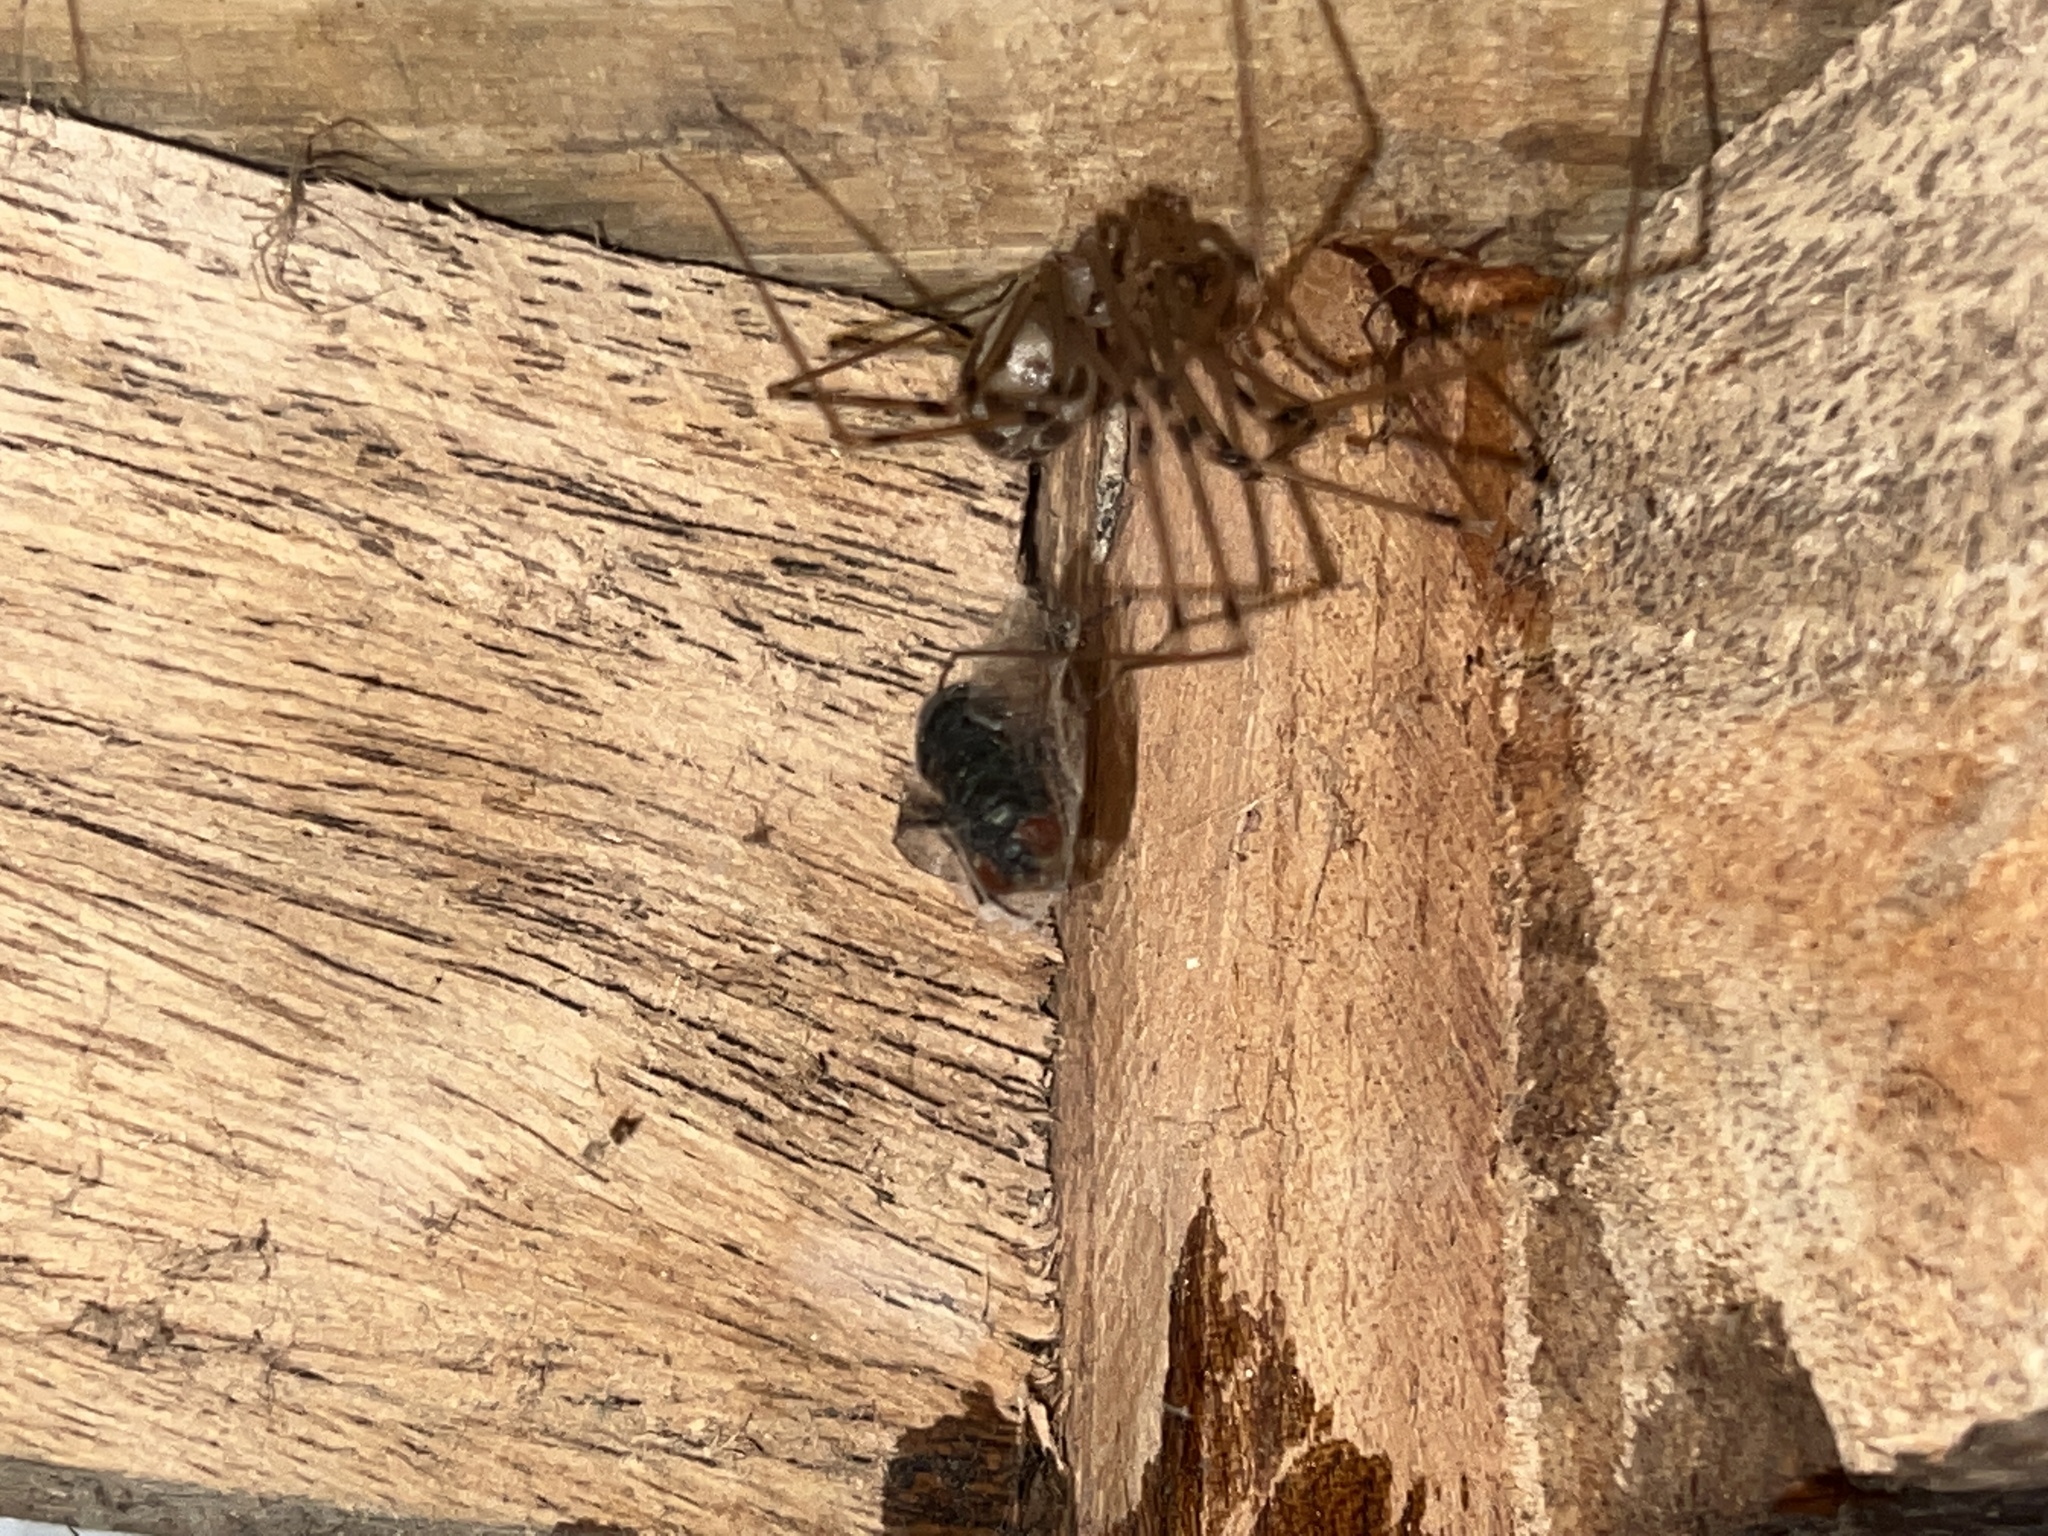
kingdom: Animalia
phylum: Arthropoda
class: Arachnida
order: Araneae
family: Pholcidae
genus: Artema
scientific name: Artema atlanta
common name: Cellar spider
